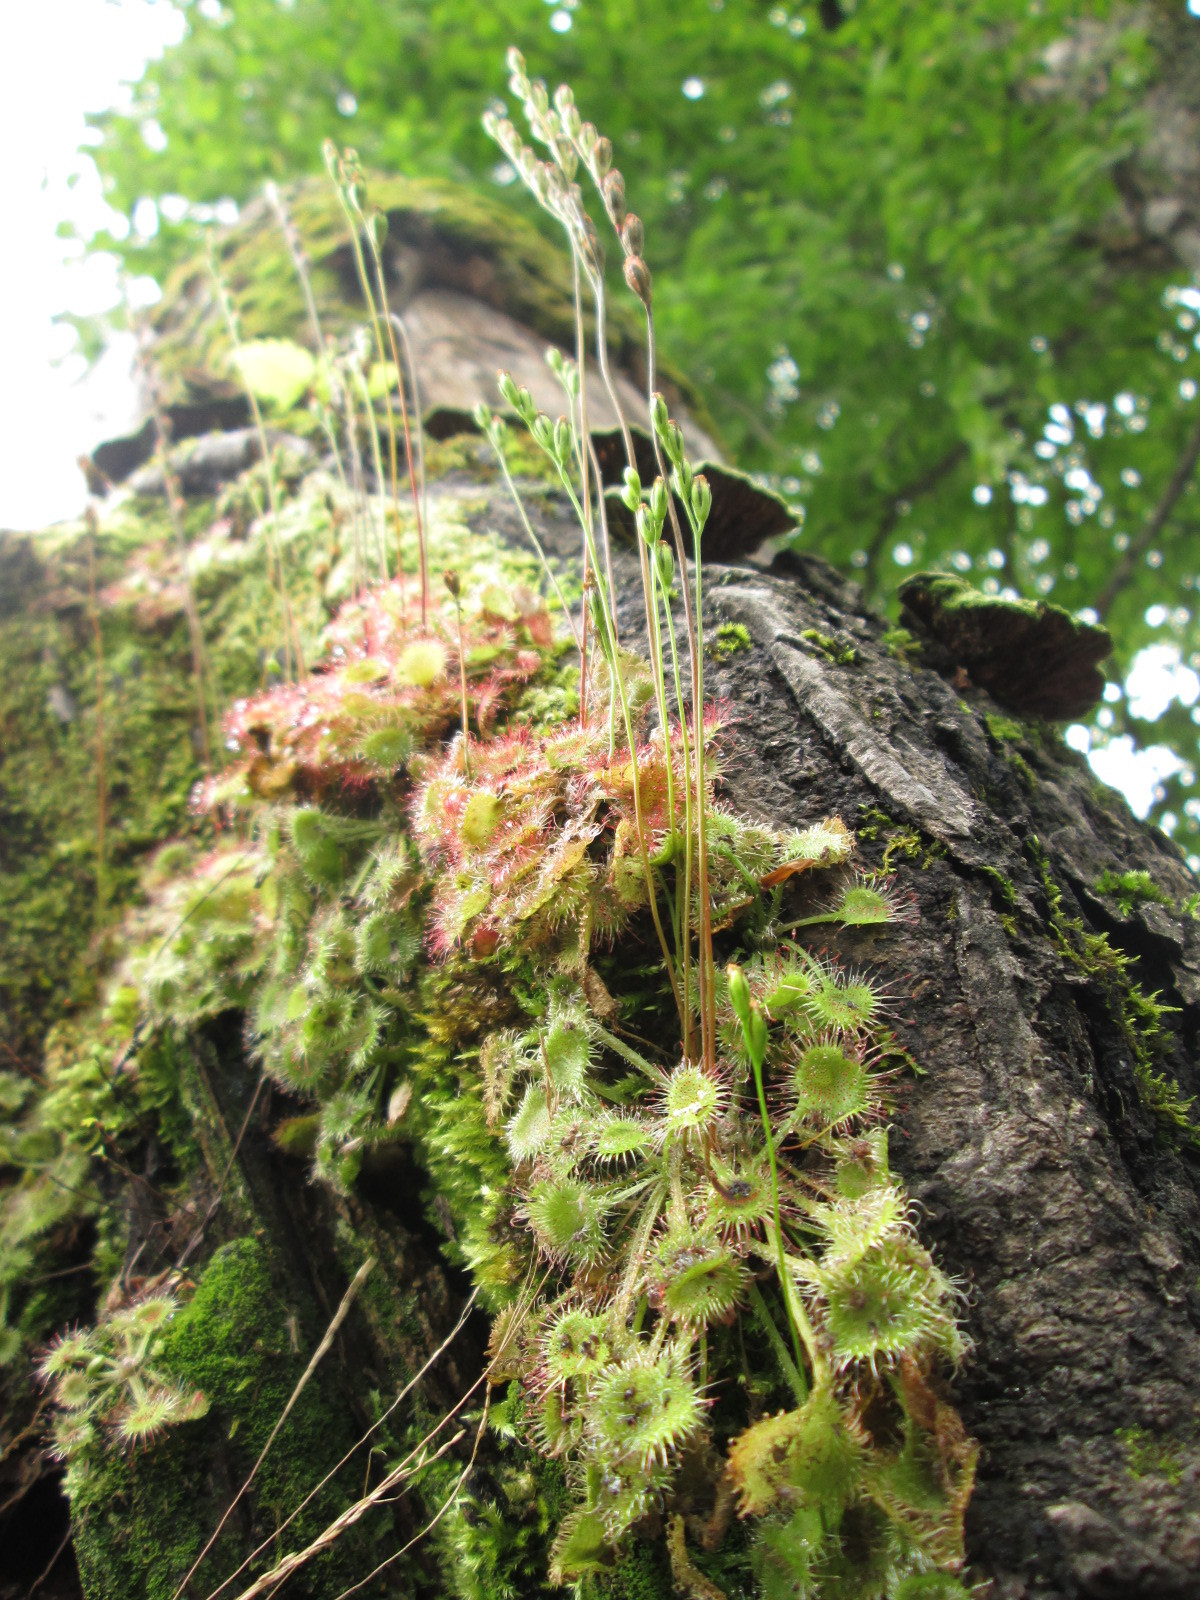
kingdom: Plantae
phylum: Tracheophyta
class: Magnoliopsida
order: Caryophyllales
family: Droseraceae
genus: Drosera
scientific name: Drosera rotundifolia
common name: Round-leaved sundew
